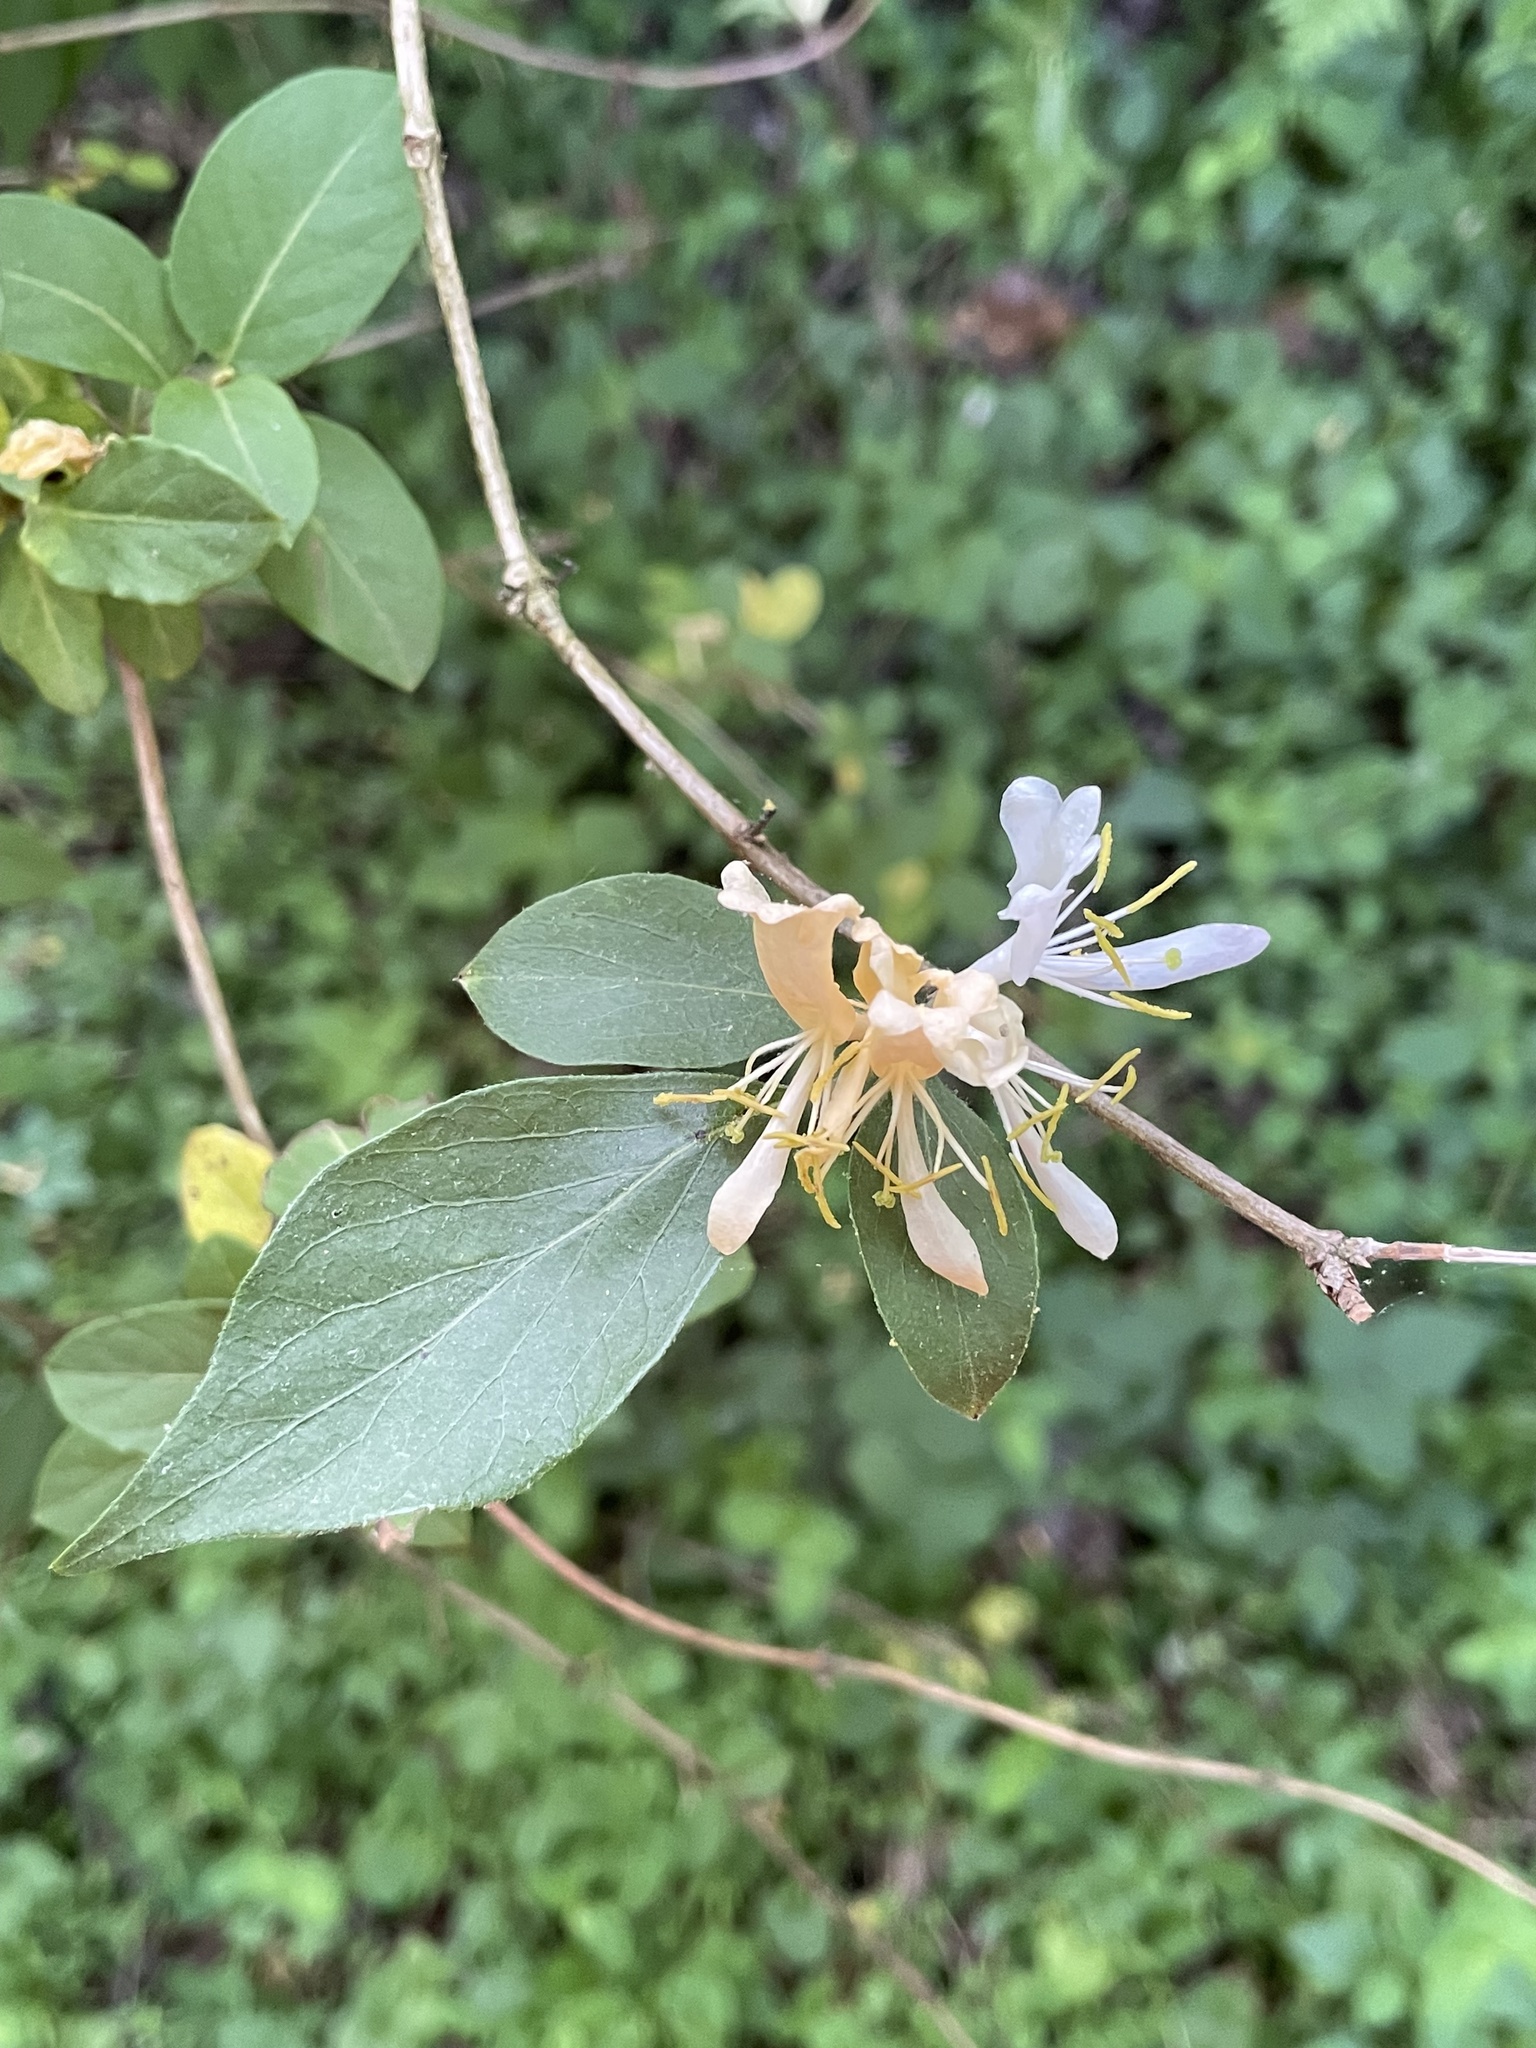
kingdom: Plantae
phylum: Tracheophyta
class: Magnoliopsida
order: Dipsacales
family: Caprifoliaceae
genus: Lonicera
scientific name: Lonicera maackii
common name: Amur honeysuckle
